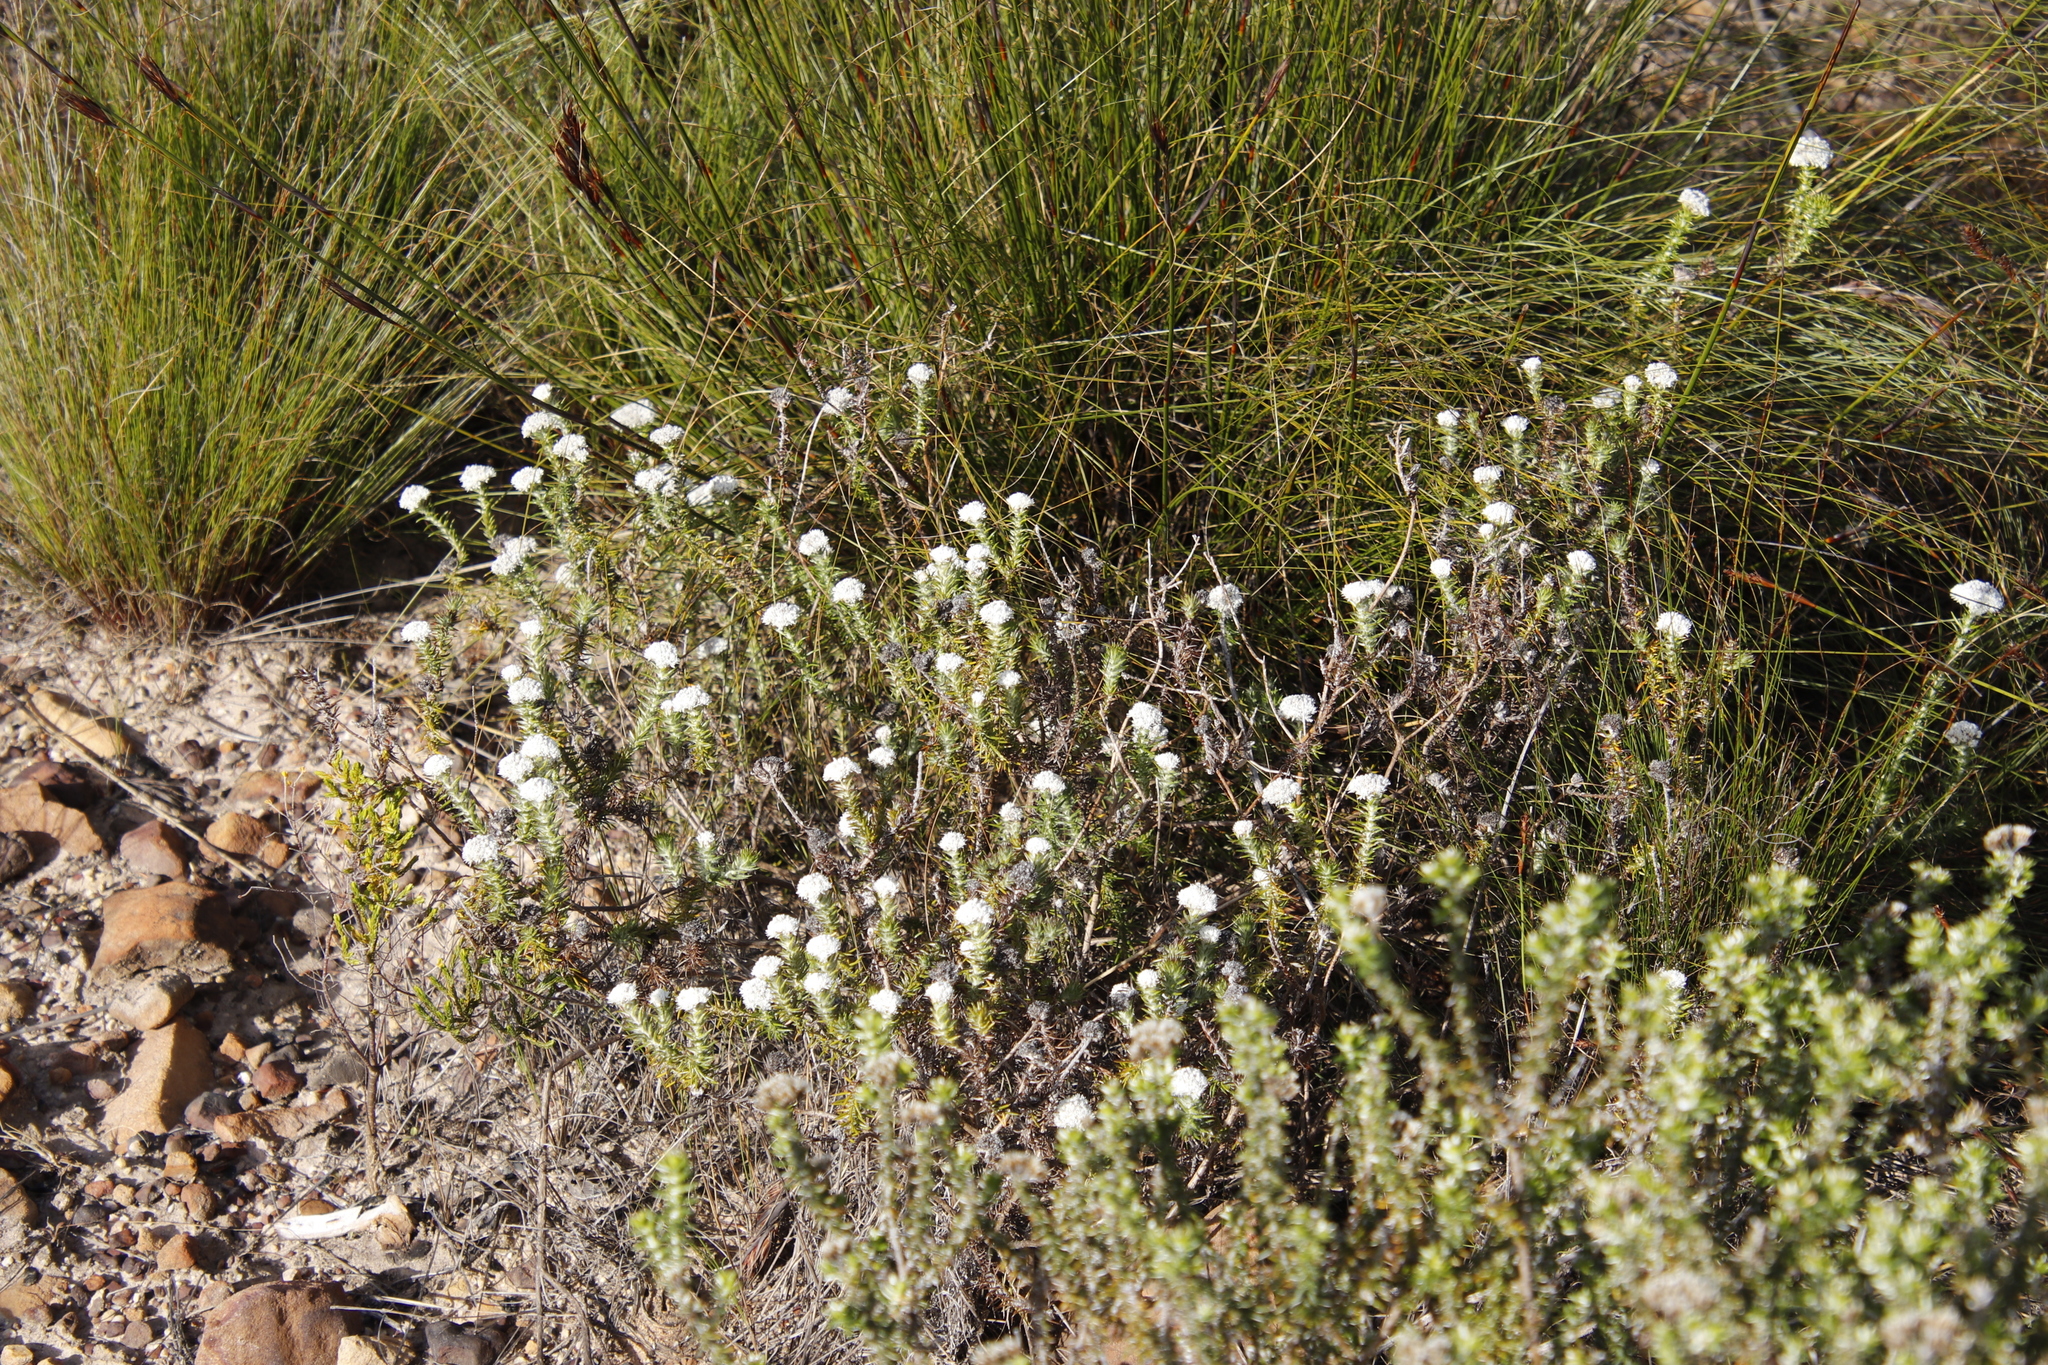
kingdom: Plantae
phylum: Tracheophyta
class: Magnoliopsida
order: Asterales
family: Asteraceae
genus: Metalasia
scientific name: Metalasia pulchella
